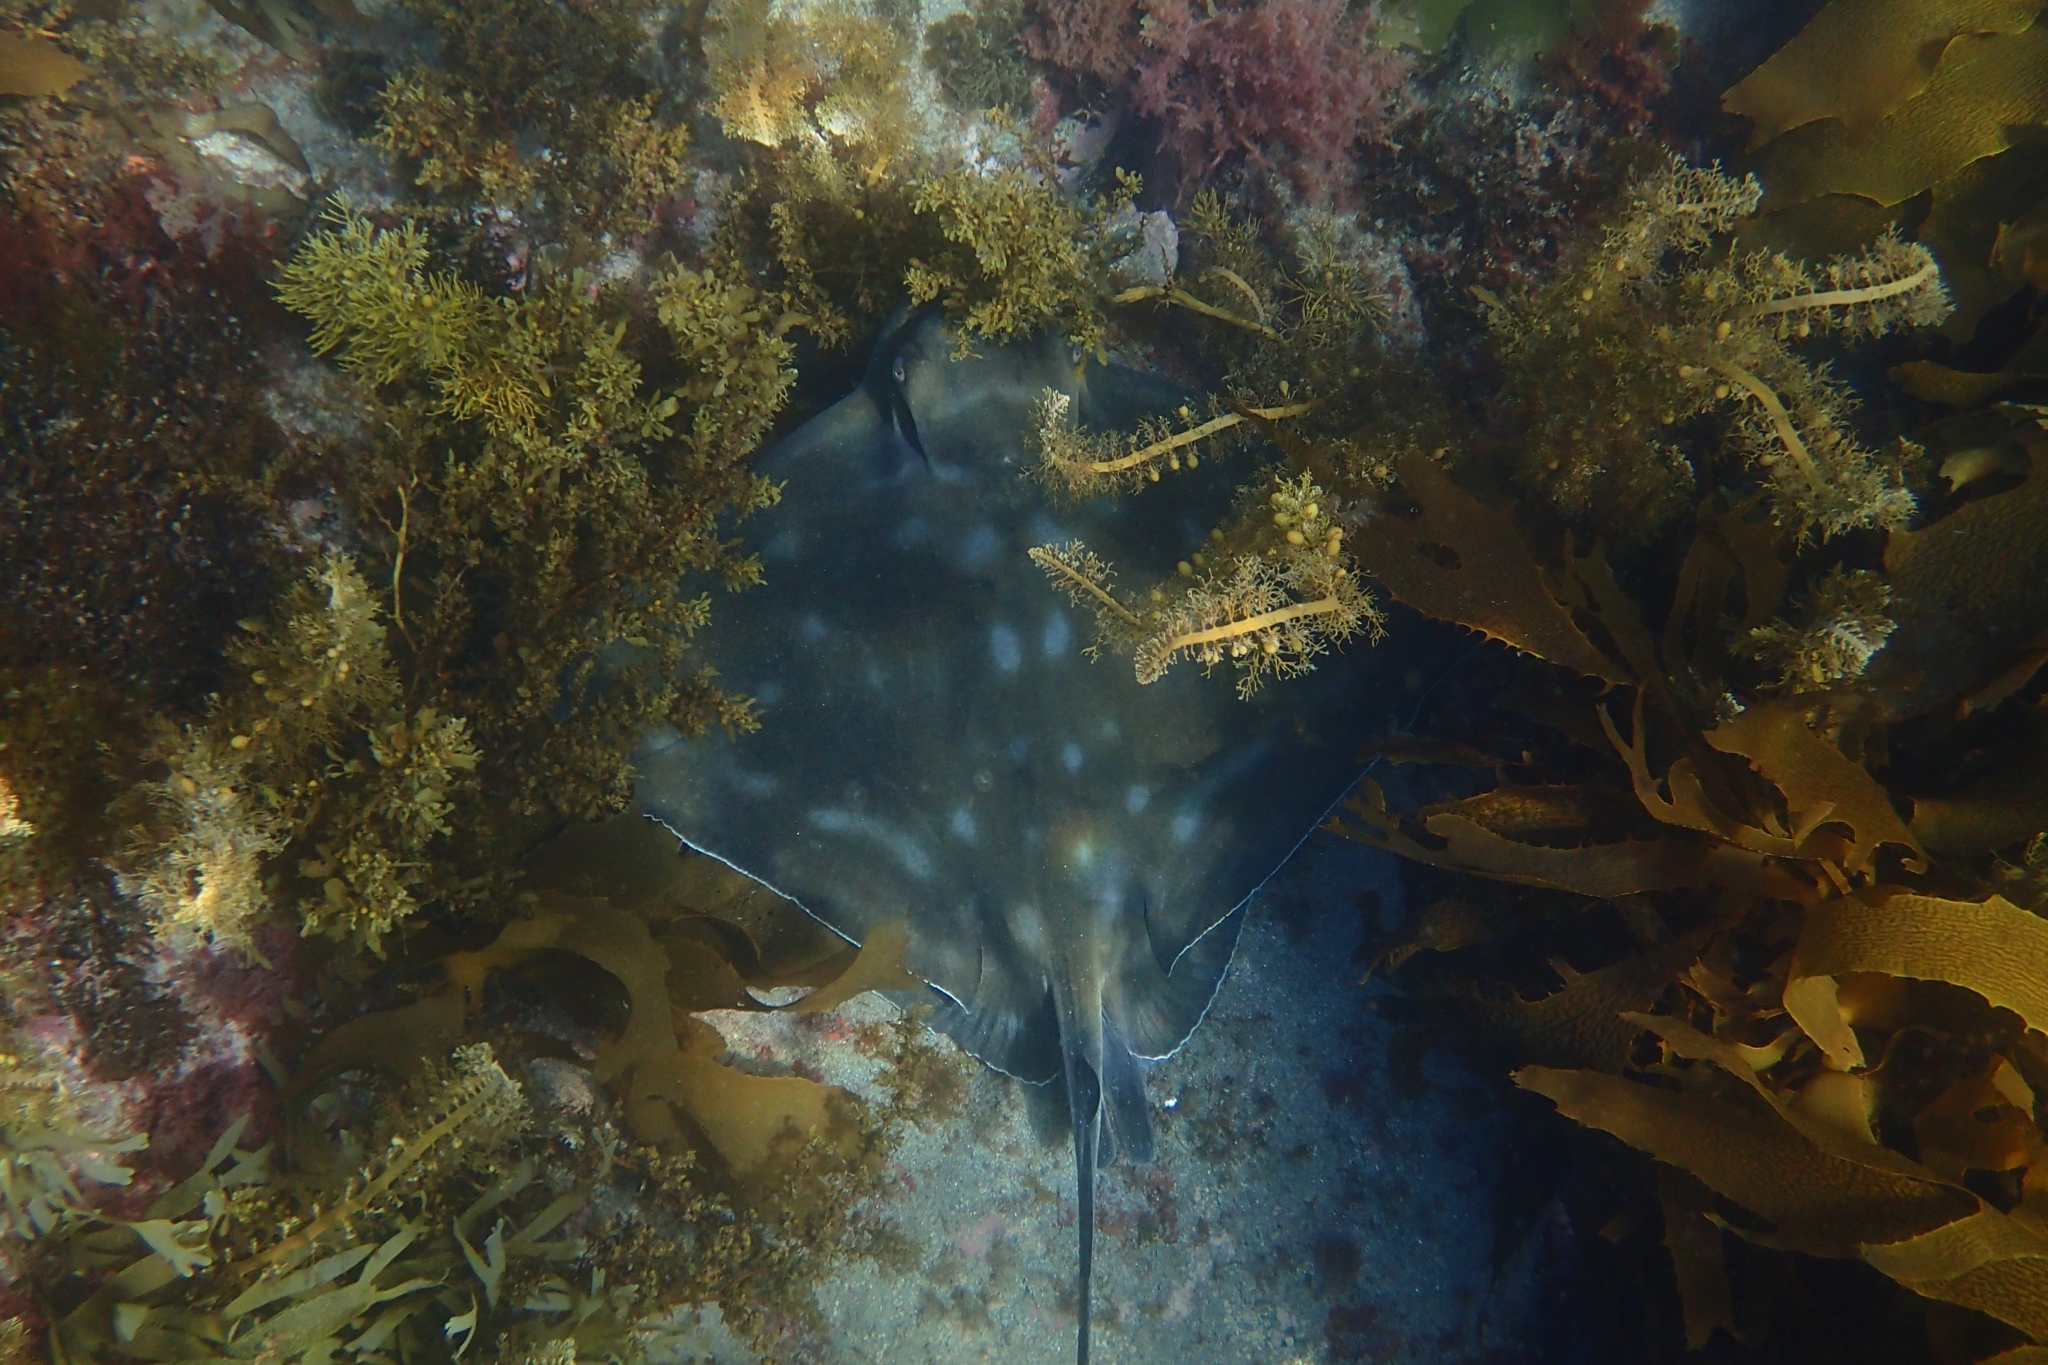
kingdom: Animalia
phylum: Chordata
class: Elasmobranchii
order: Myliobatiformes
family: Myliobatidae
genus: Myliobatis
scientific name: Myliobatis tenuicaudatus
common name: Eagle ray
